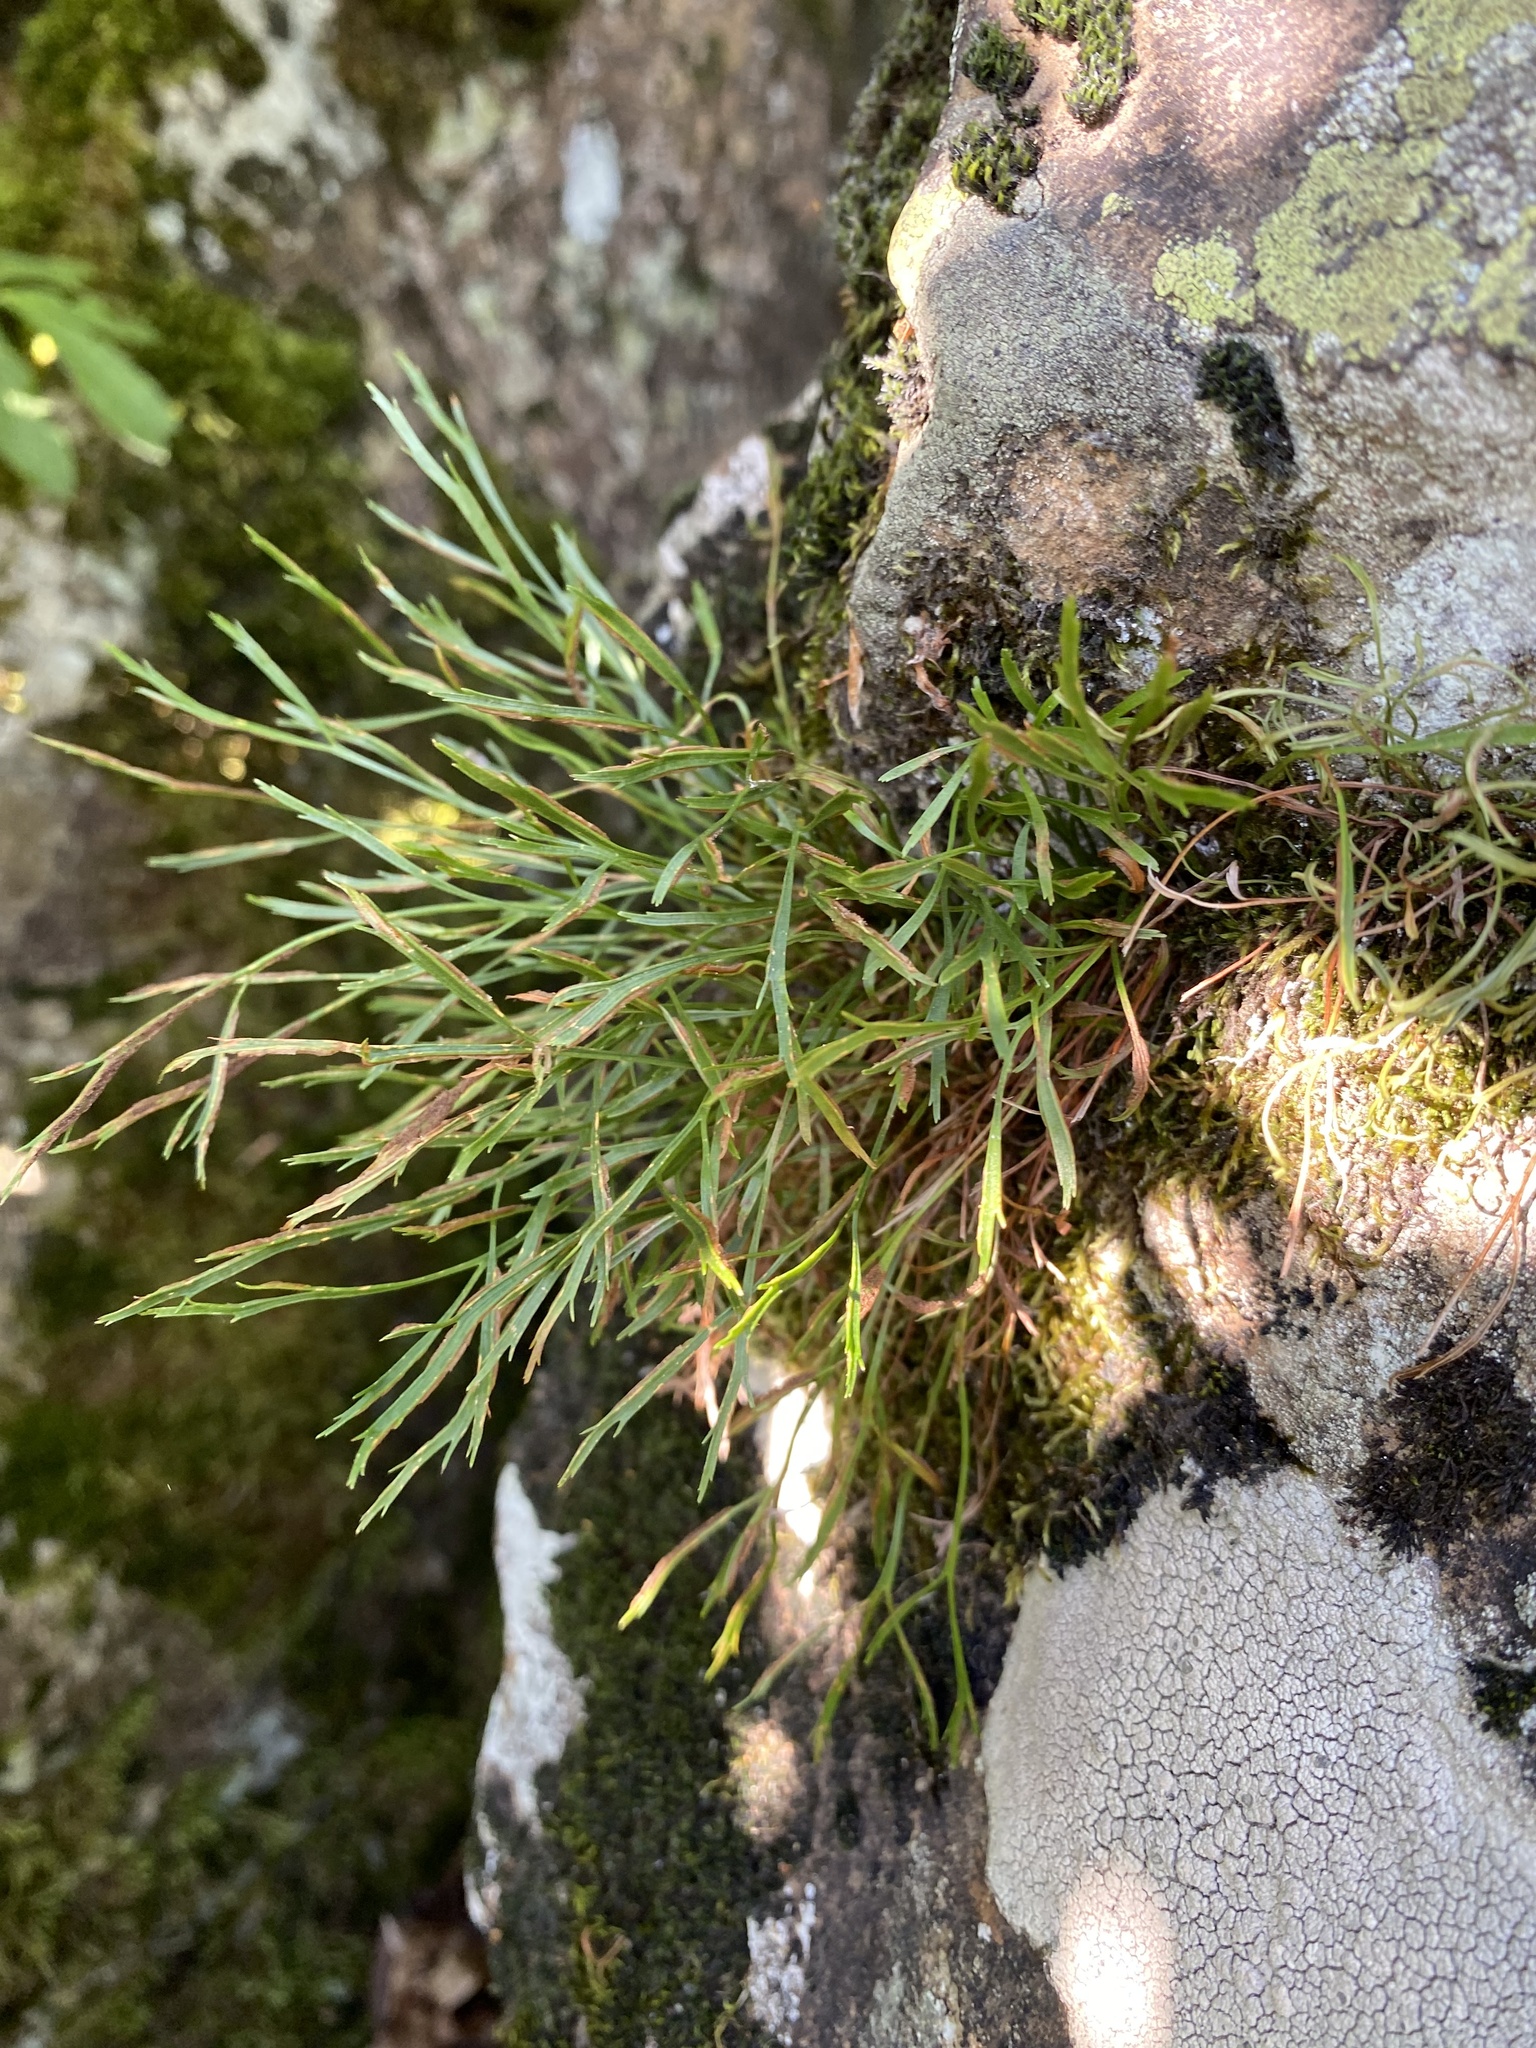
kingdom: Plantae
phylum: Tracheophyta
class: Polypodiopsida
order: Polypodiales
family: Aspleniaceae
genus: Asplenium
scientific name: Asplenium septentrionale
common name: Forked spleenwort
